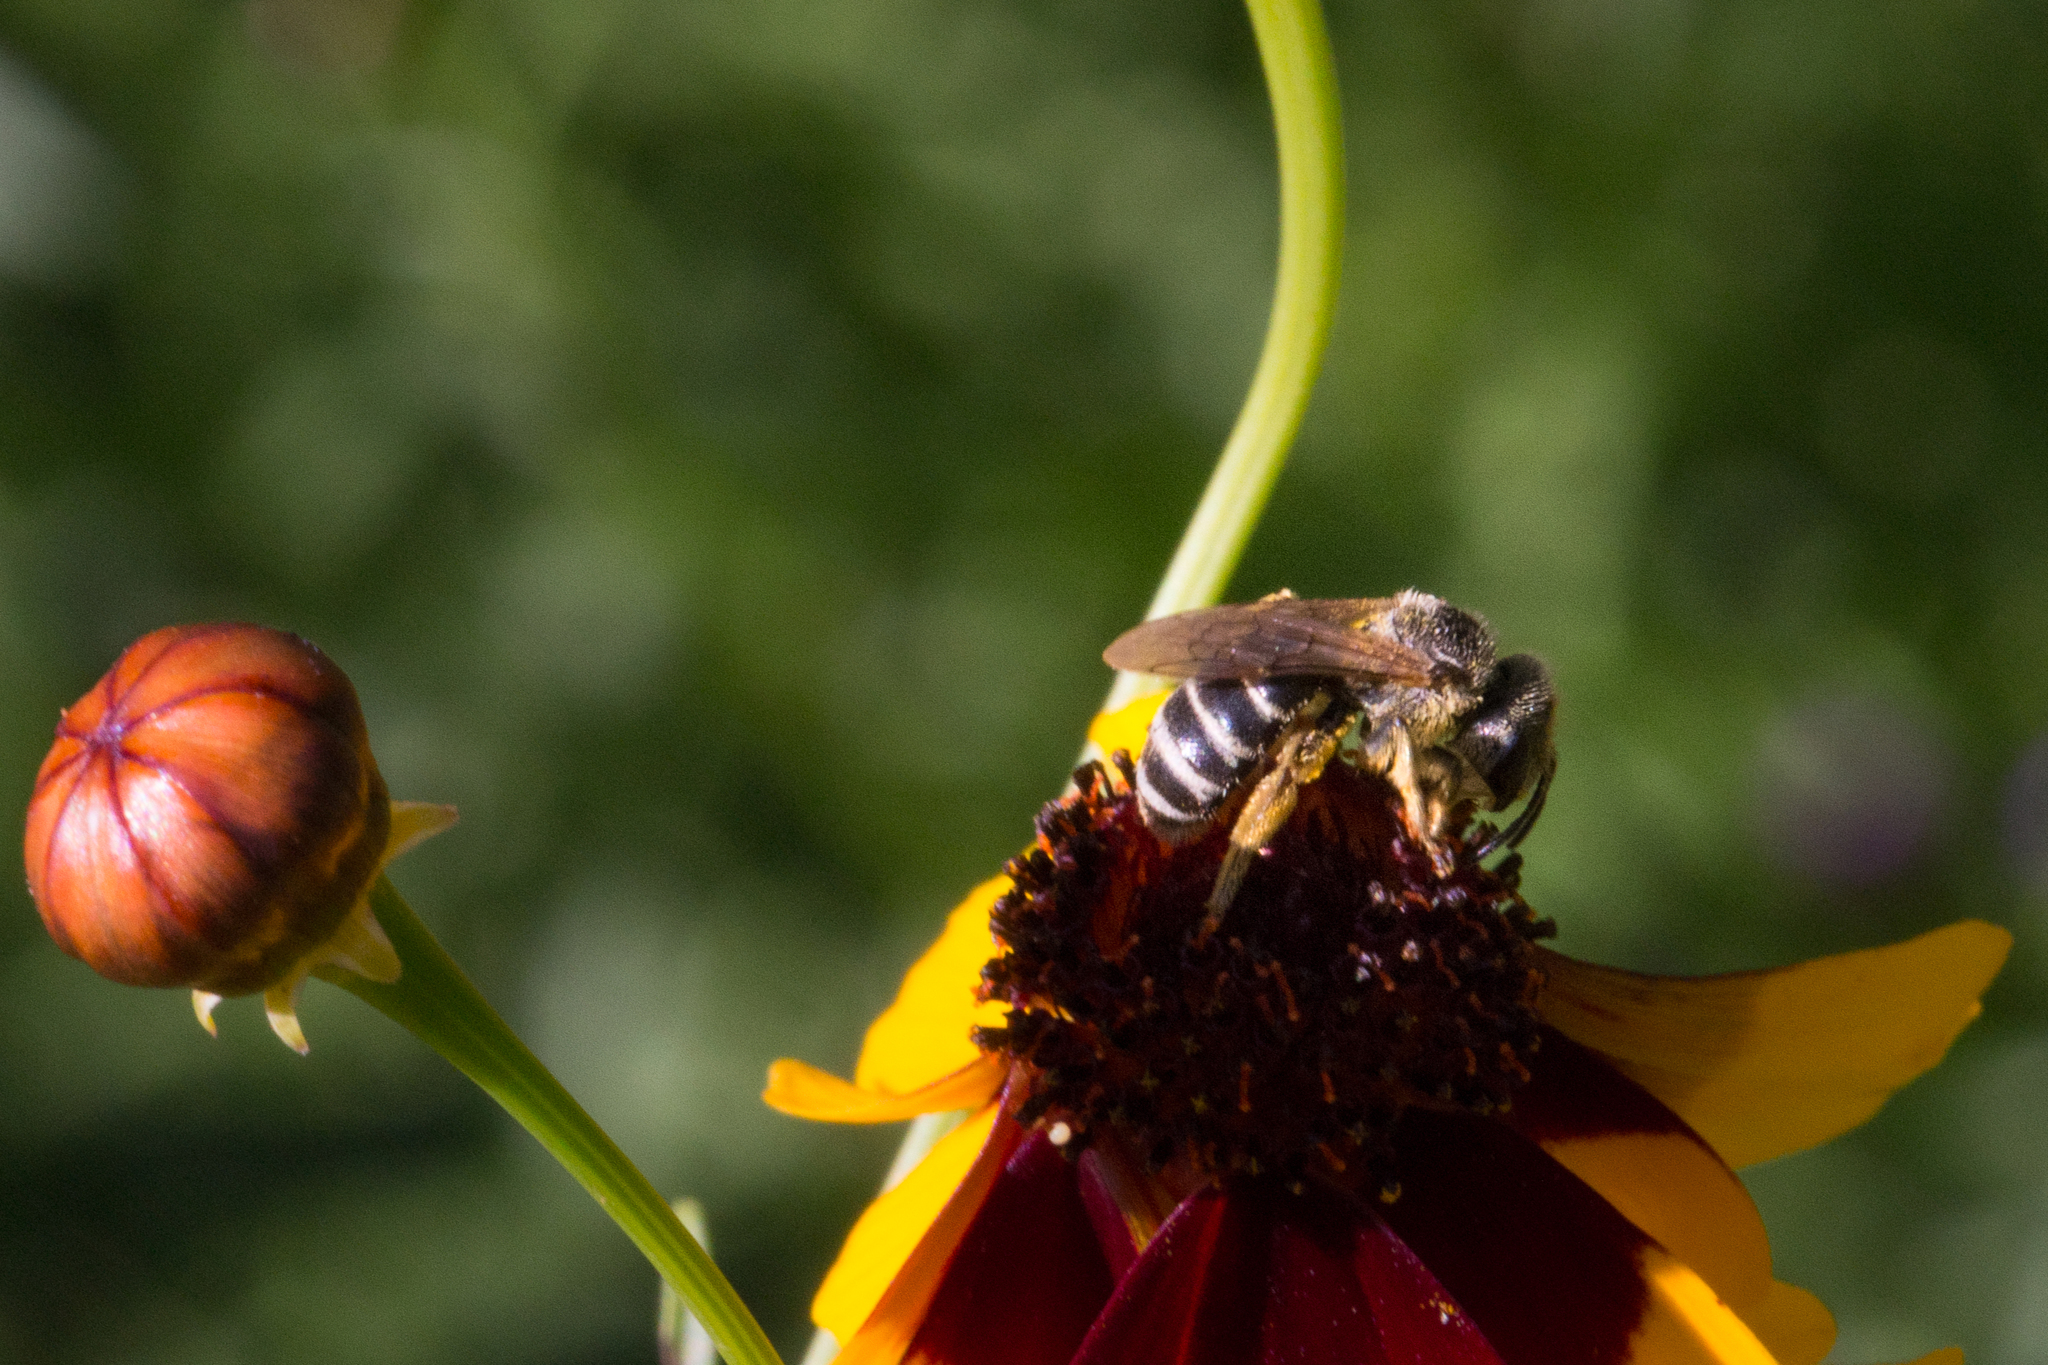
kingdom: Animalia
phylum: Arthropoda
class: Insecta
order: Hymenoptera
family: Halictidae
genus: Halictus
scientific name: Halictus ligatus
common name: Ligated furrow bee
